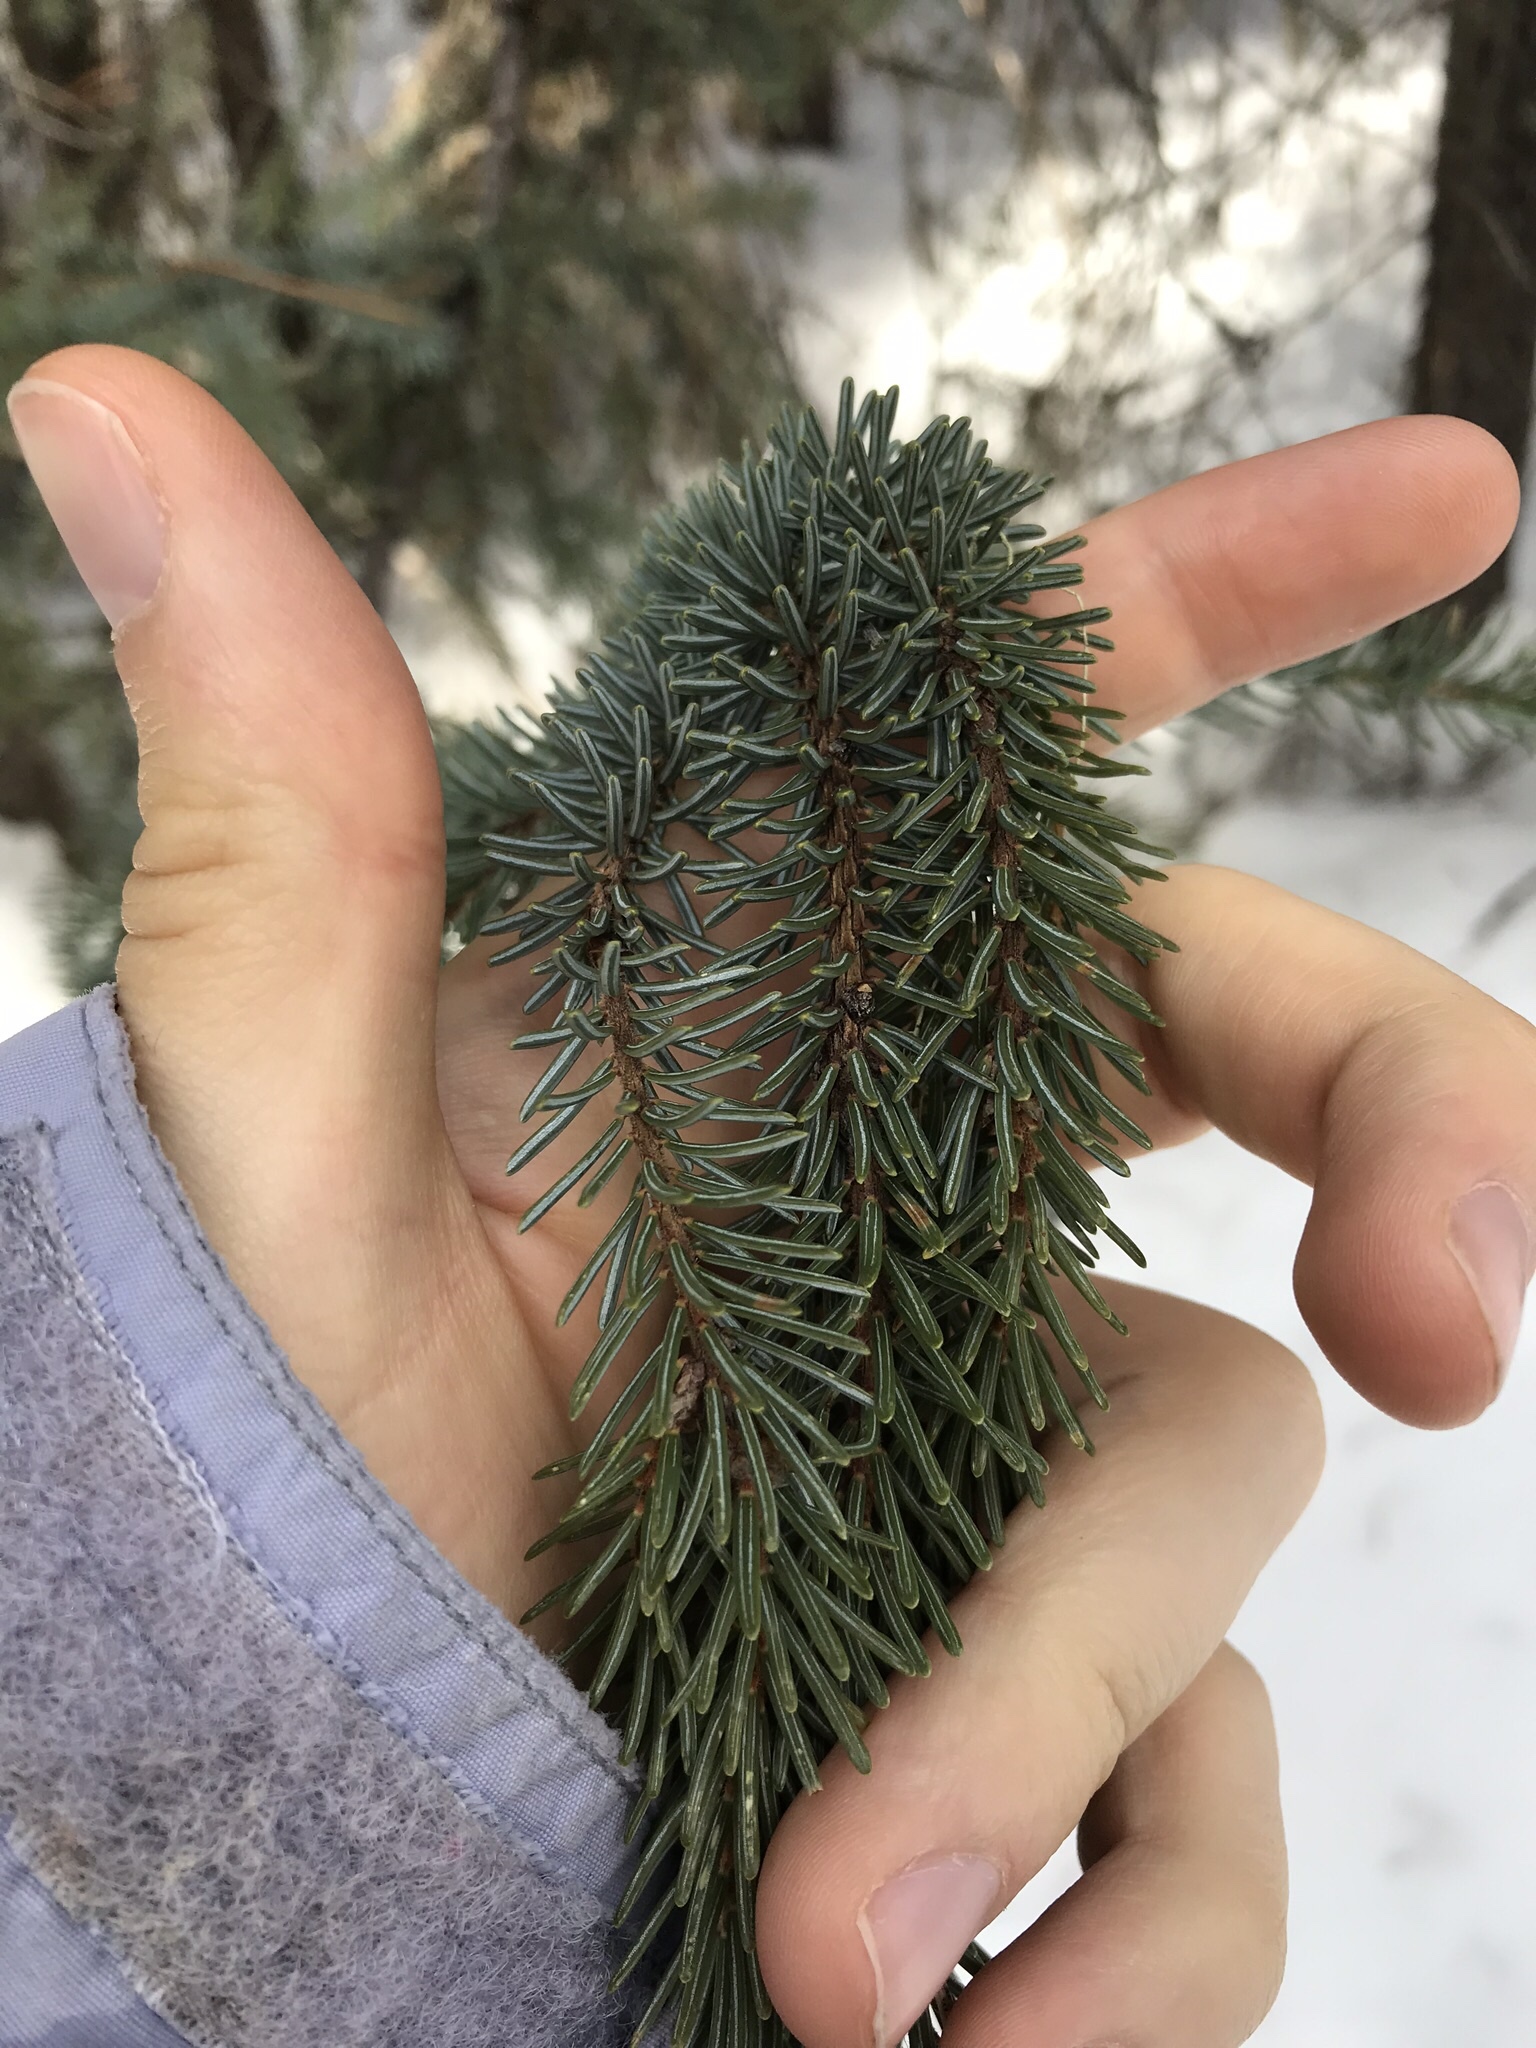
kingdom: Plantae
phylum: Tracheophyta
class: Pinopsida
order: Pinales
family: Pinaceae
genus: Picea
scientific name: Picea mariana
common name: Black spruce
